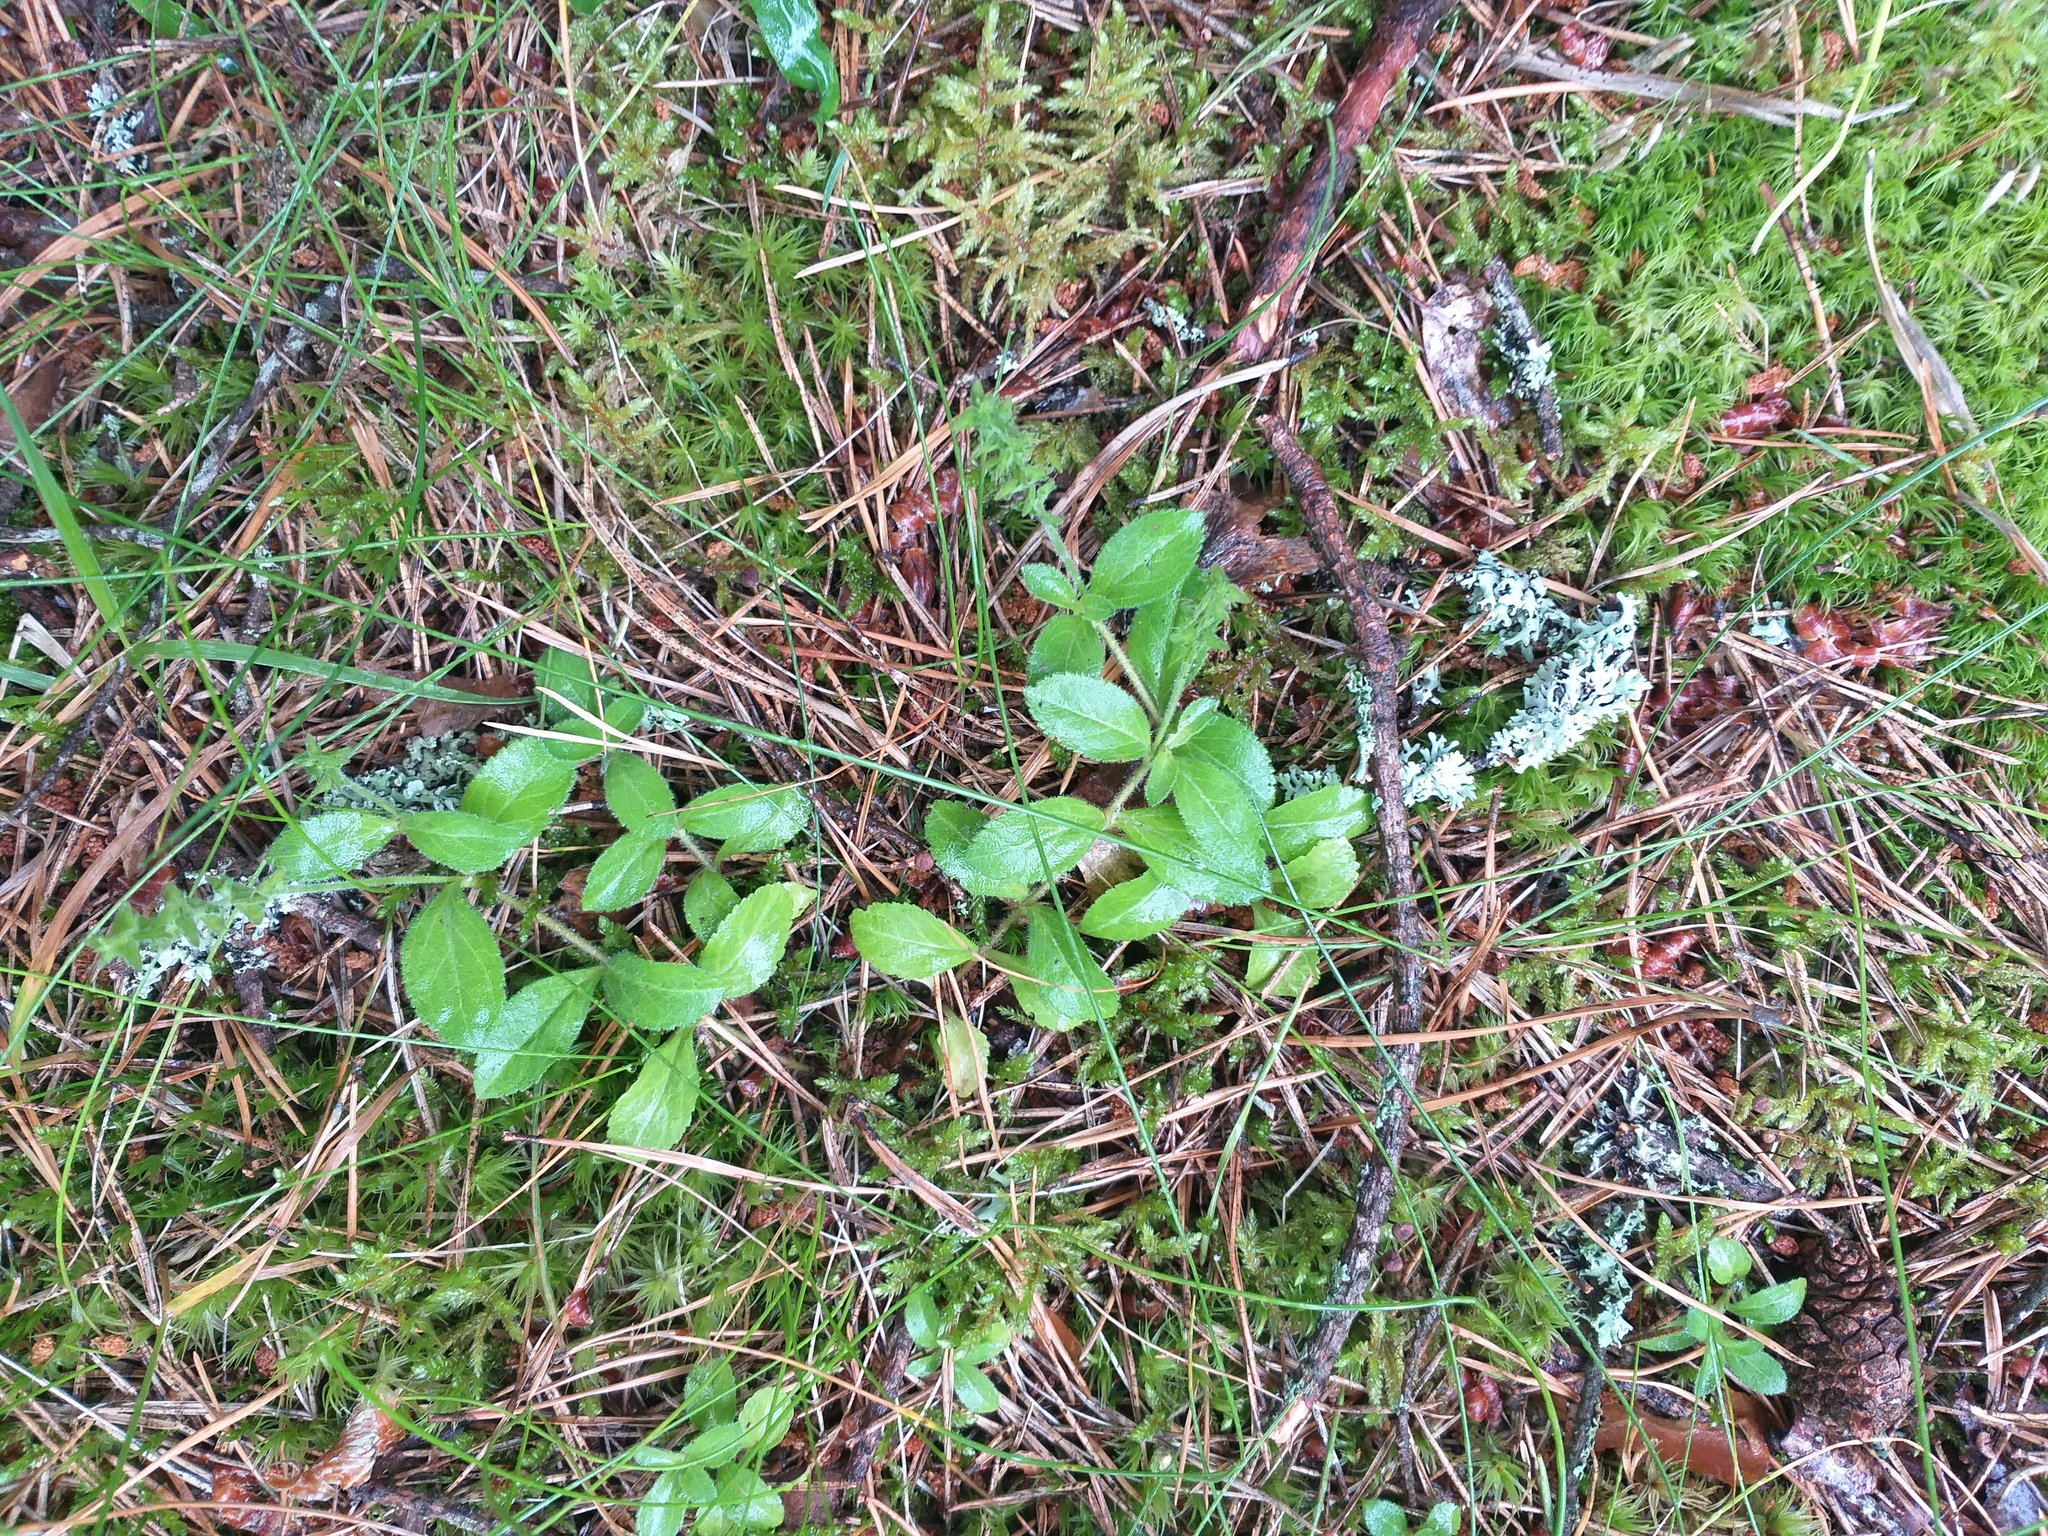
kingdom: Plantae
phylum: Tracheophyta
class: Magnoliopsida
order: Lamiales
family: Plantaginaceae
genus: Veronica
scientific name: Veronica officinalis
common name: Common speedwell
